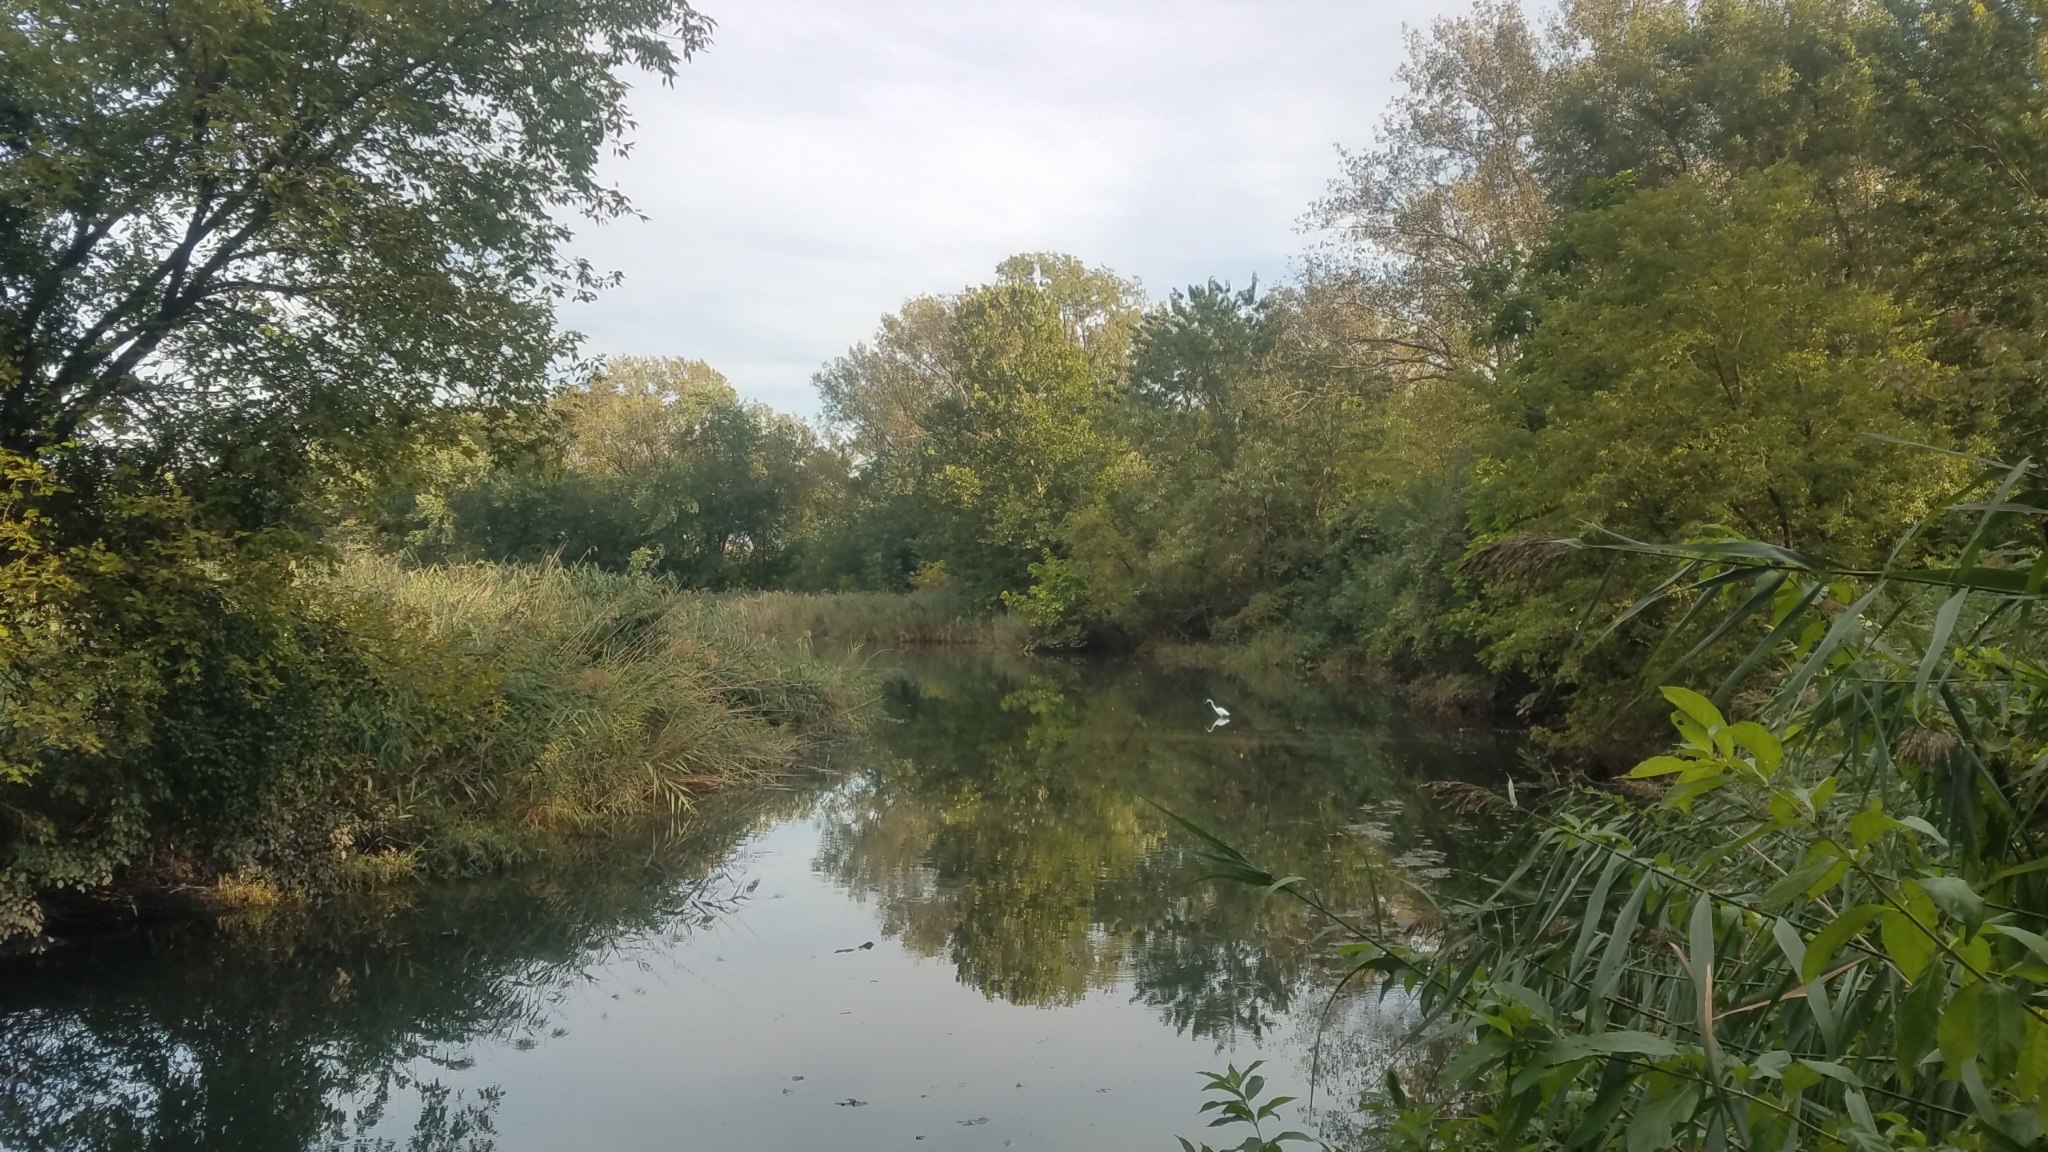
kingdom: Animalia
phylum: Chordata
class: Aves
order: Pelecaniformes
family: Ardeidae
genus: Ardea
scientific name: Ardea alba
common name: Great egret
